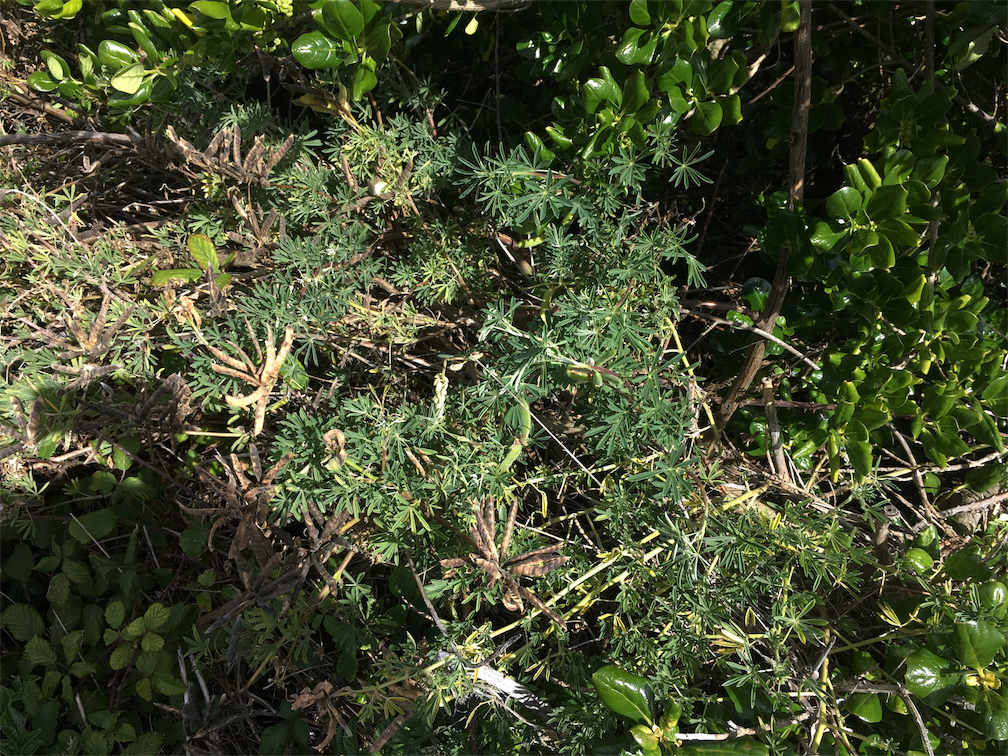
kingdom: Plantae
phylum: Tracheophyta
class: Magnoliopsida
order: Fabales
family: Fabaceae
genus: Lupinus
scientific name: Lupinus arboreus
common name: Yellow bush lupine
